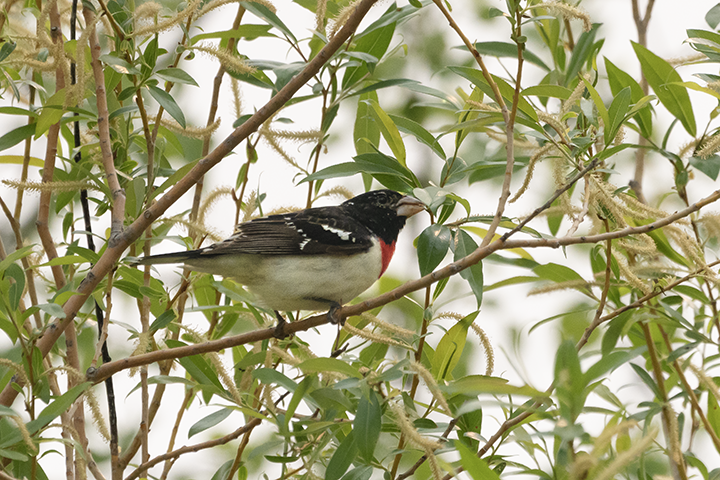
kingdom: Animalia
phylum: Chordata
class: Aves
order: Passeriformes
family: Cardinalidae
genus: Pheucticus
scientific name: Pheucticus ludovicianus
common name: Rose-breasted grosbeak
